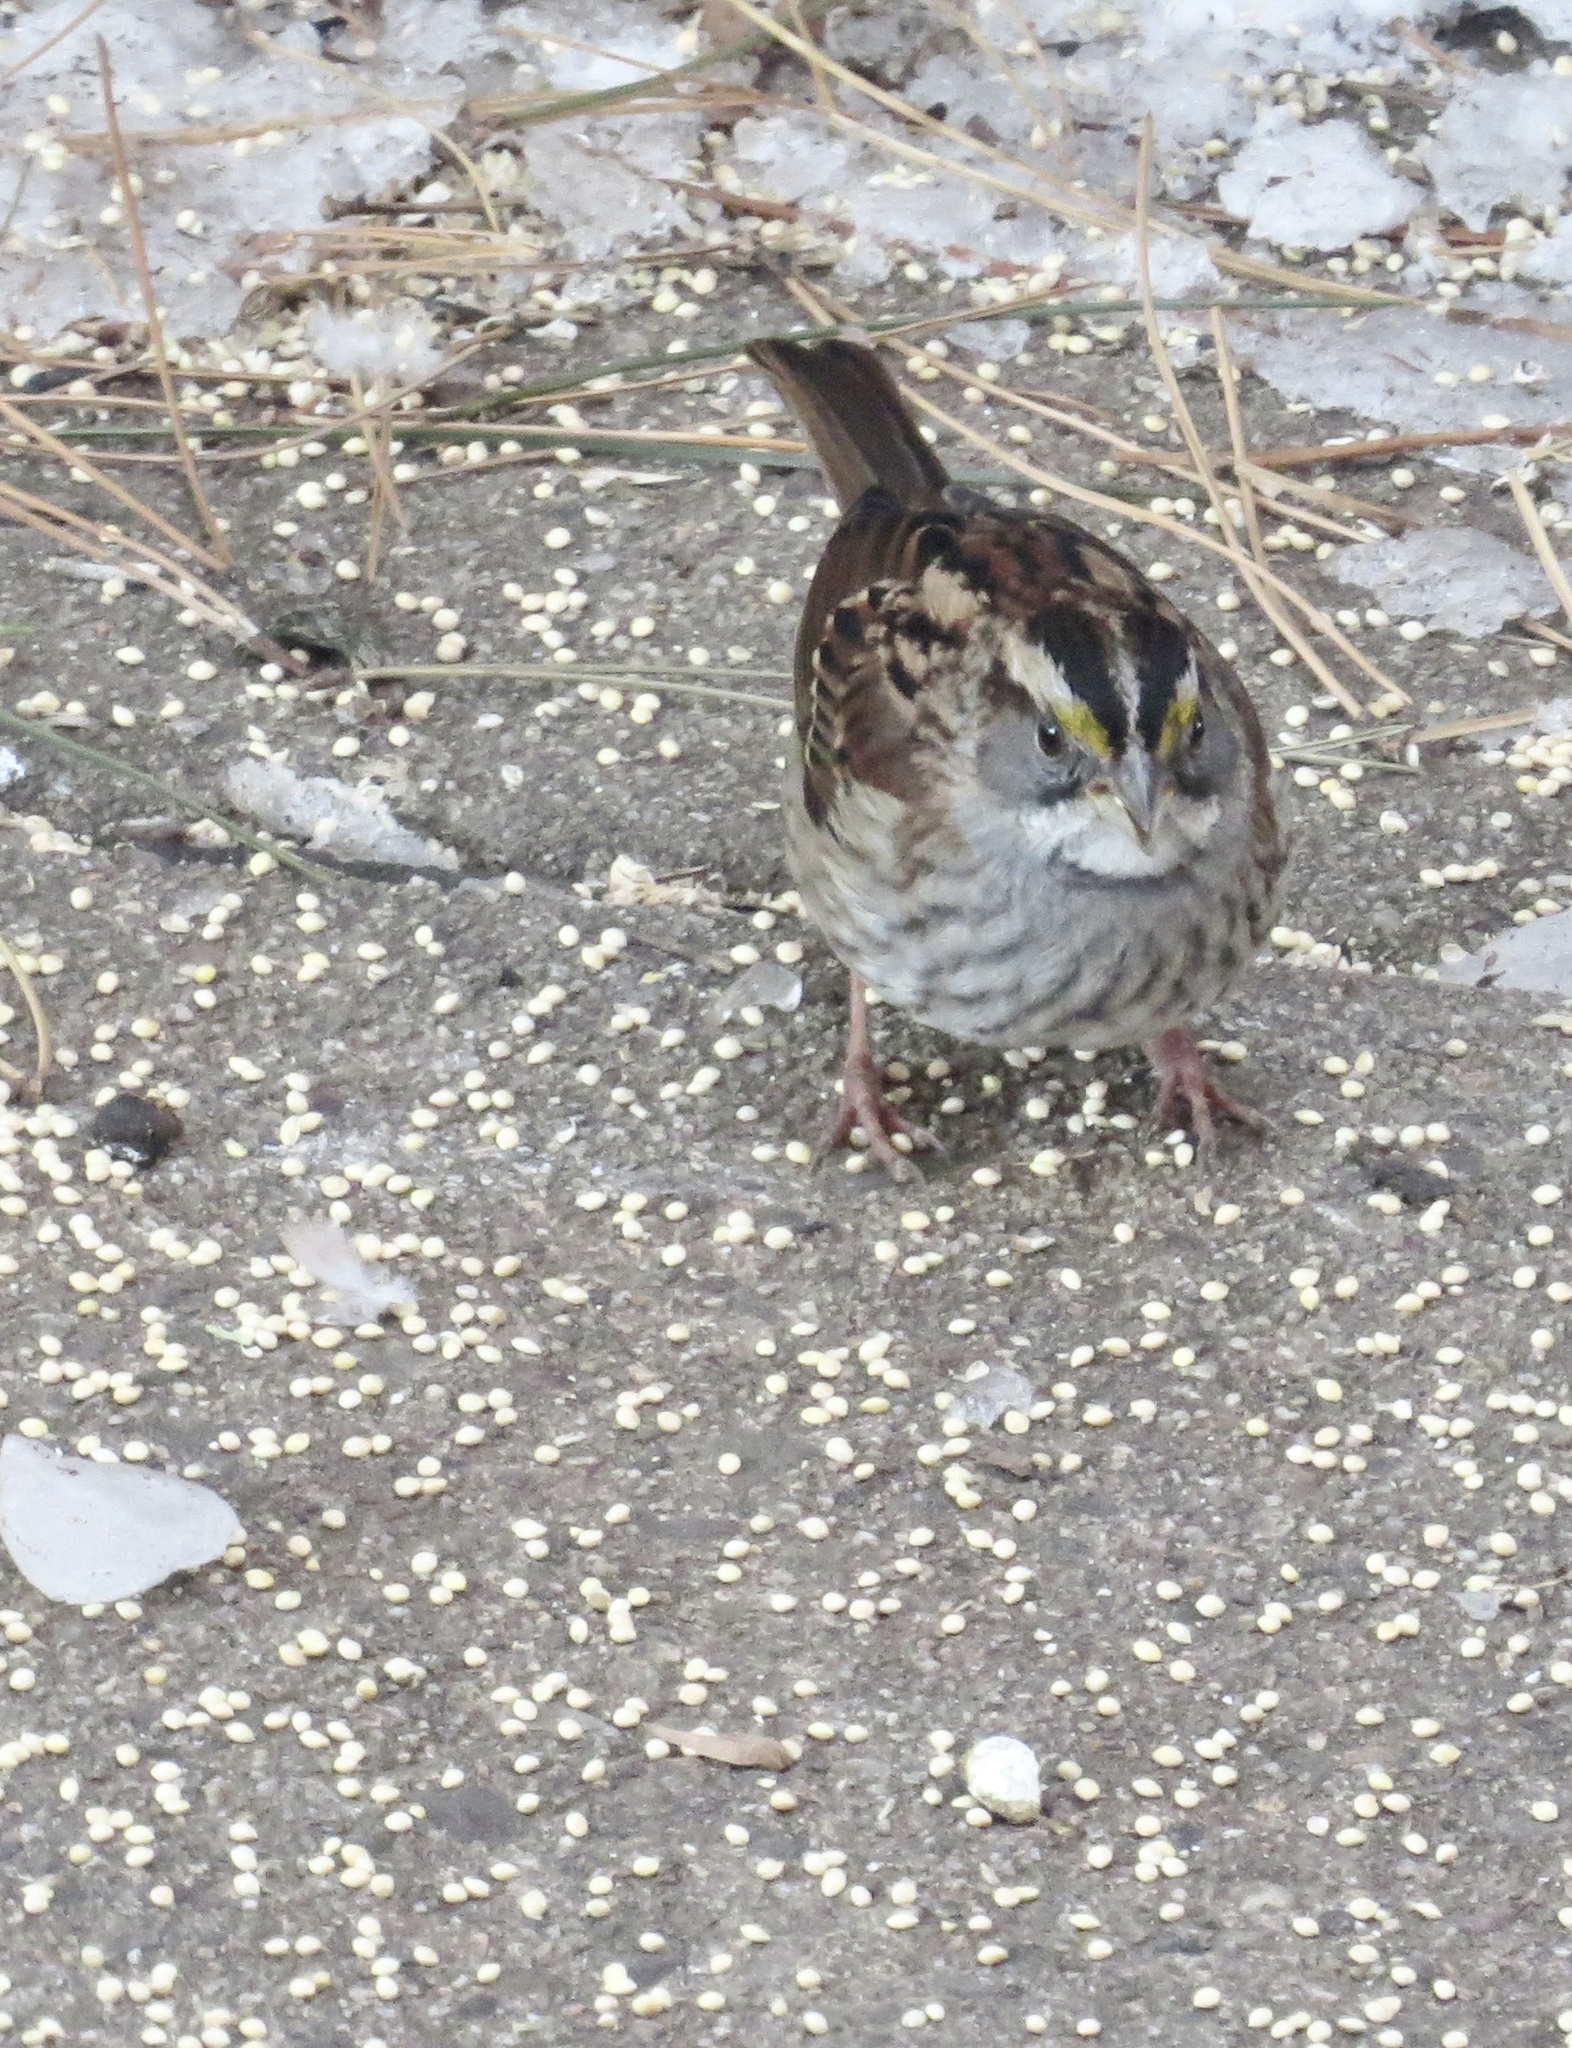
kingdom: Animalia
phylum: Chordata
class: Aves
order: Passeriformes
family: Passerellidae
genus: Zonotrichia
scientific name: Zonotrichia albicollis
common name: White-throated sparrow
